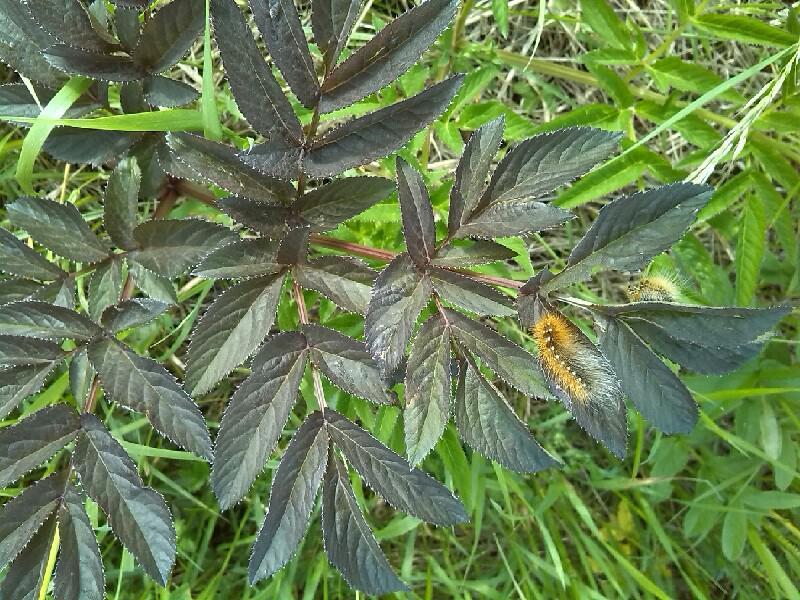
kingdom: Plantae
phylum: Tracheophyta
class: Magnoliopsida
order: Apiales
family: Apiaceae
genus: Angelica
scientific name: Angelica sylvestris
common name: Wild angelica
